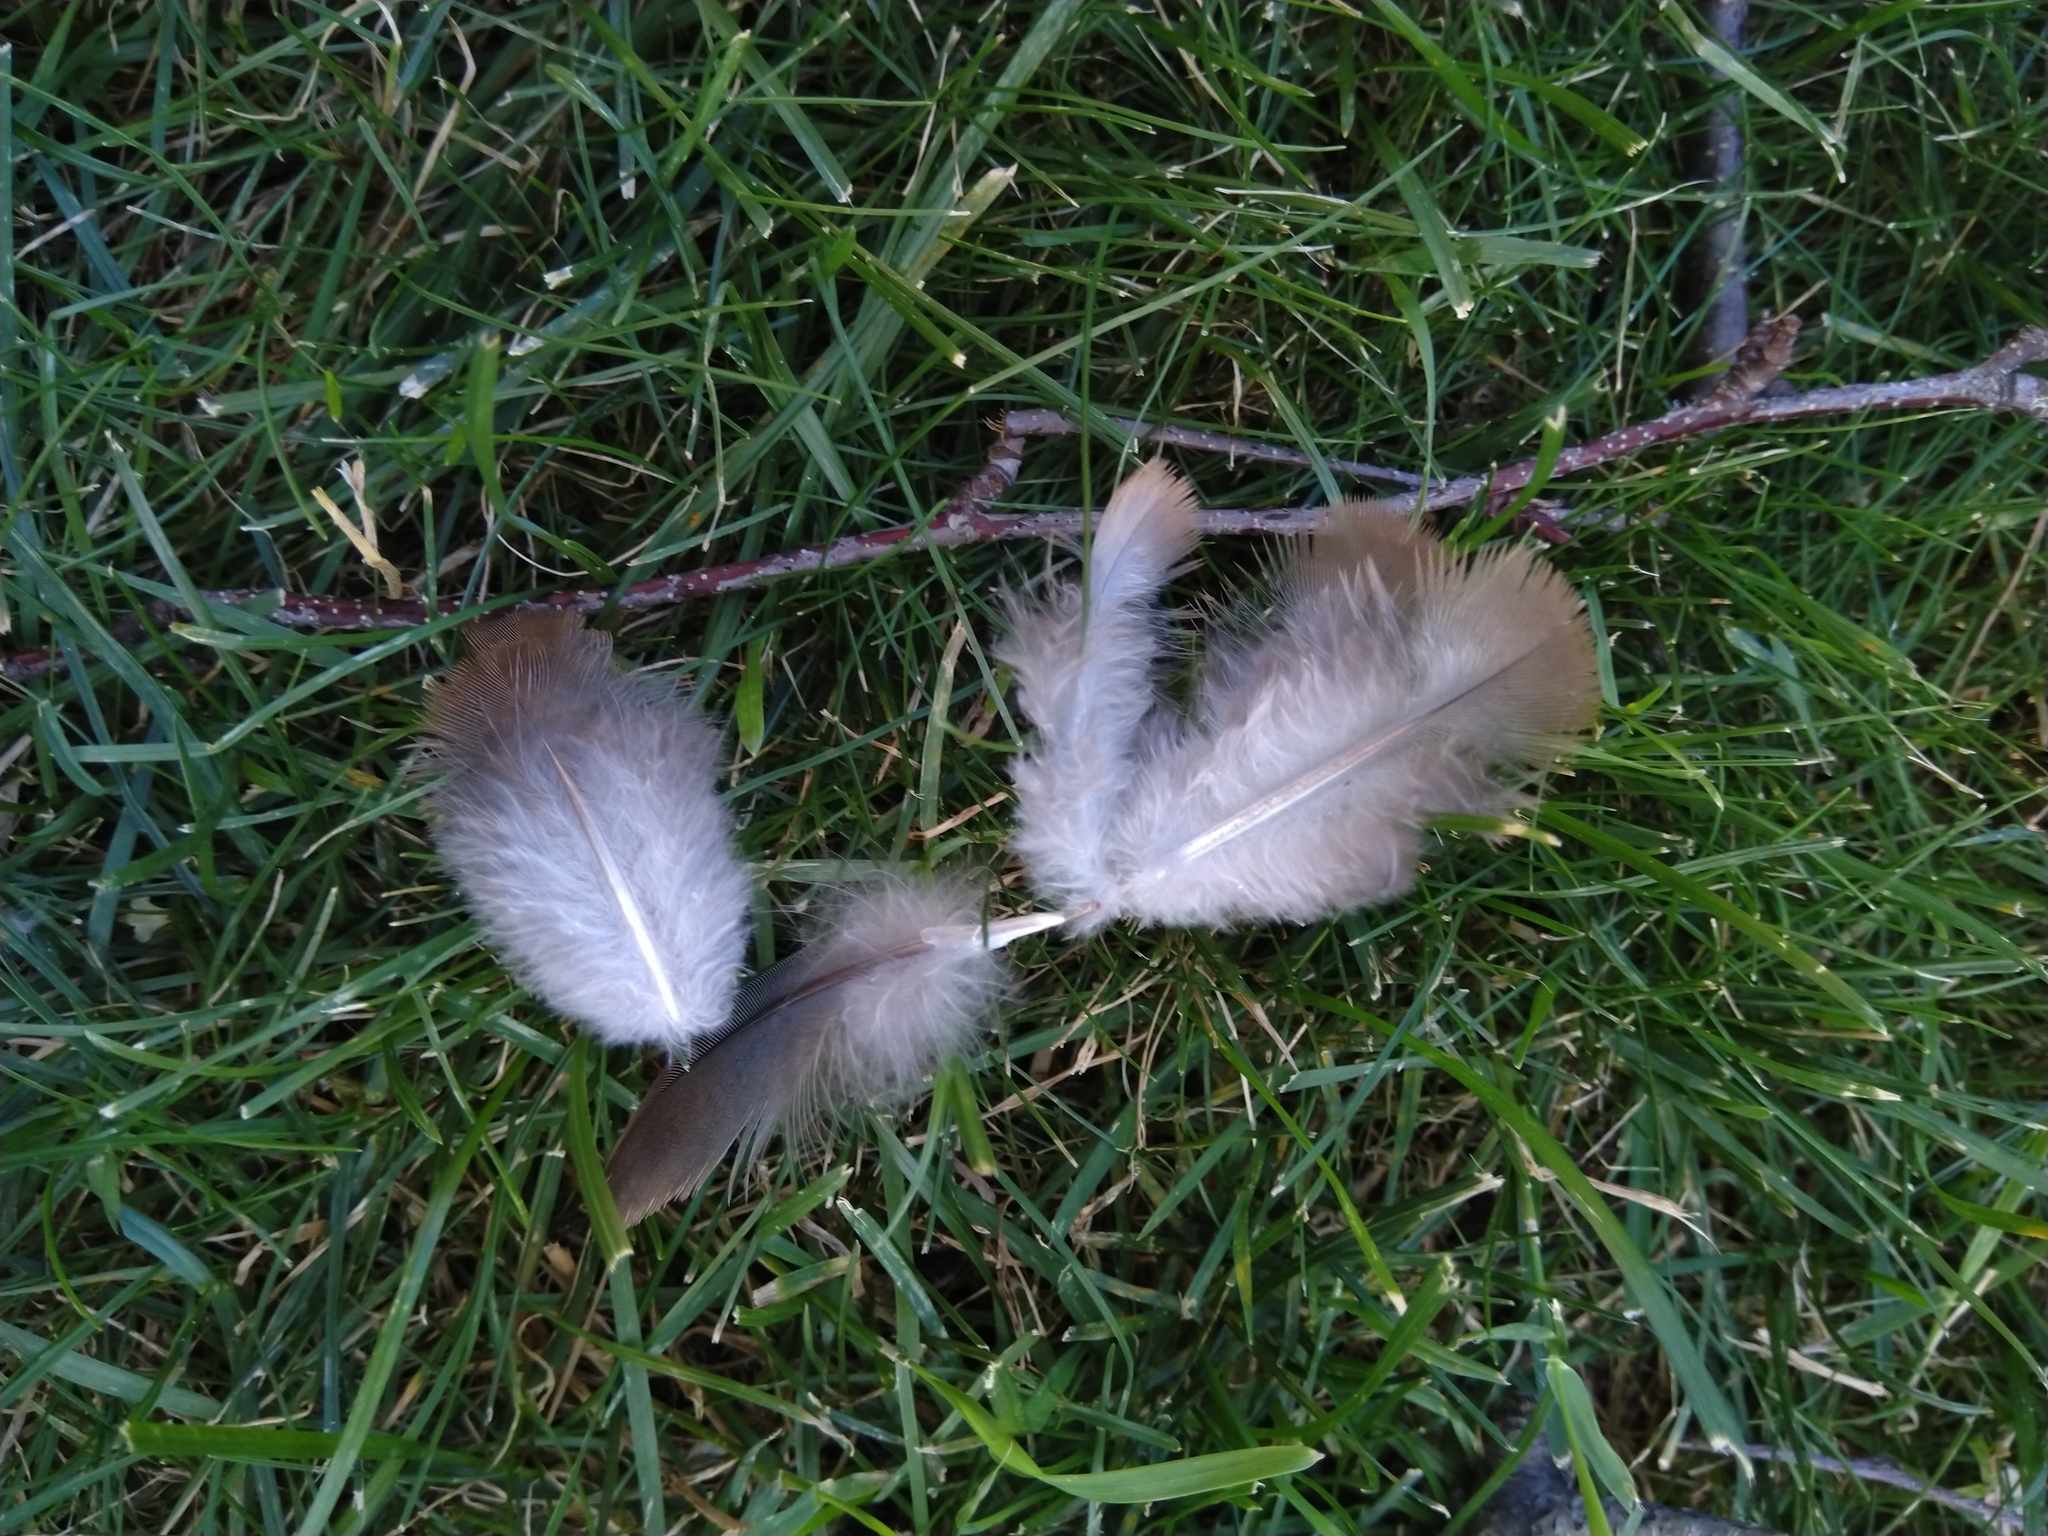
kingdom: Animalia
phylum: Chordata
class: Aves
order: Columbiformes
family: Columbidae
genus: Zenaida
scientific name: Zenaida macroura
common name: Mourning dove
